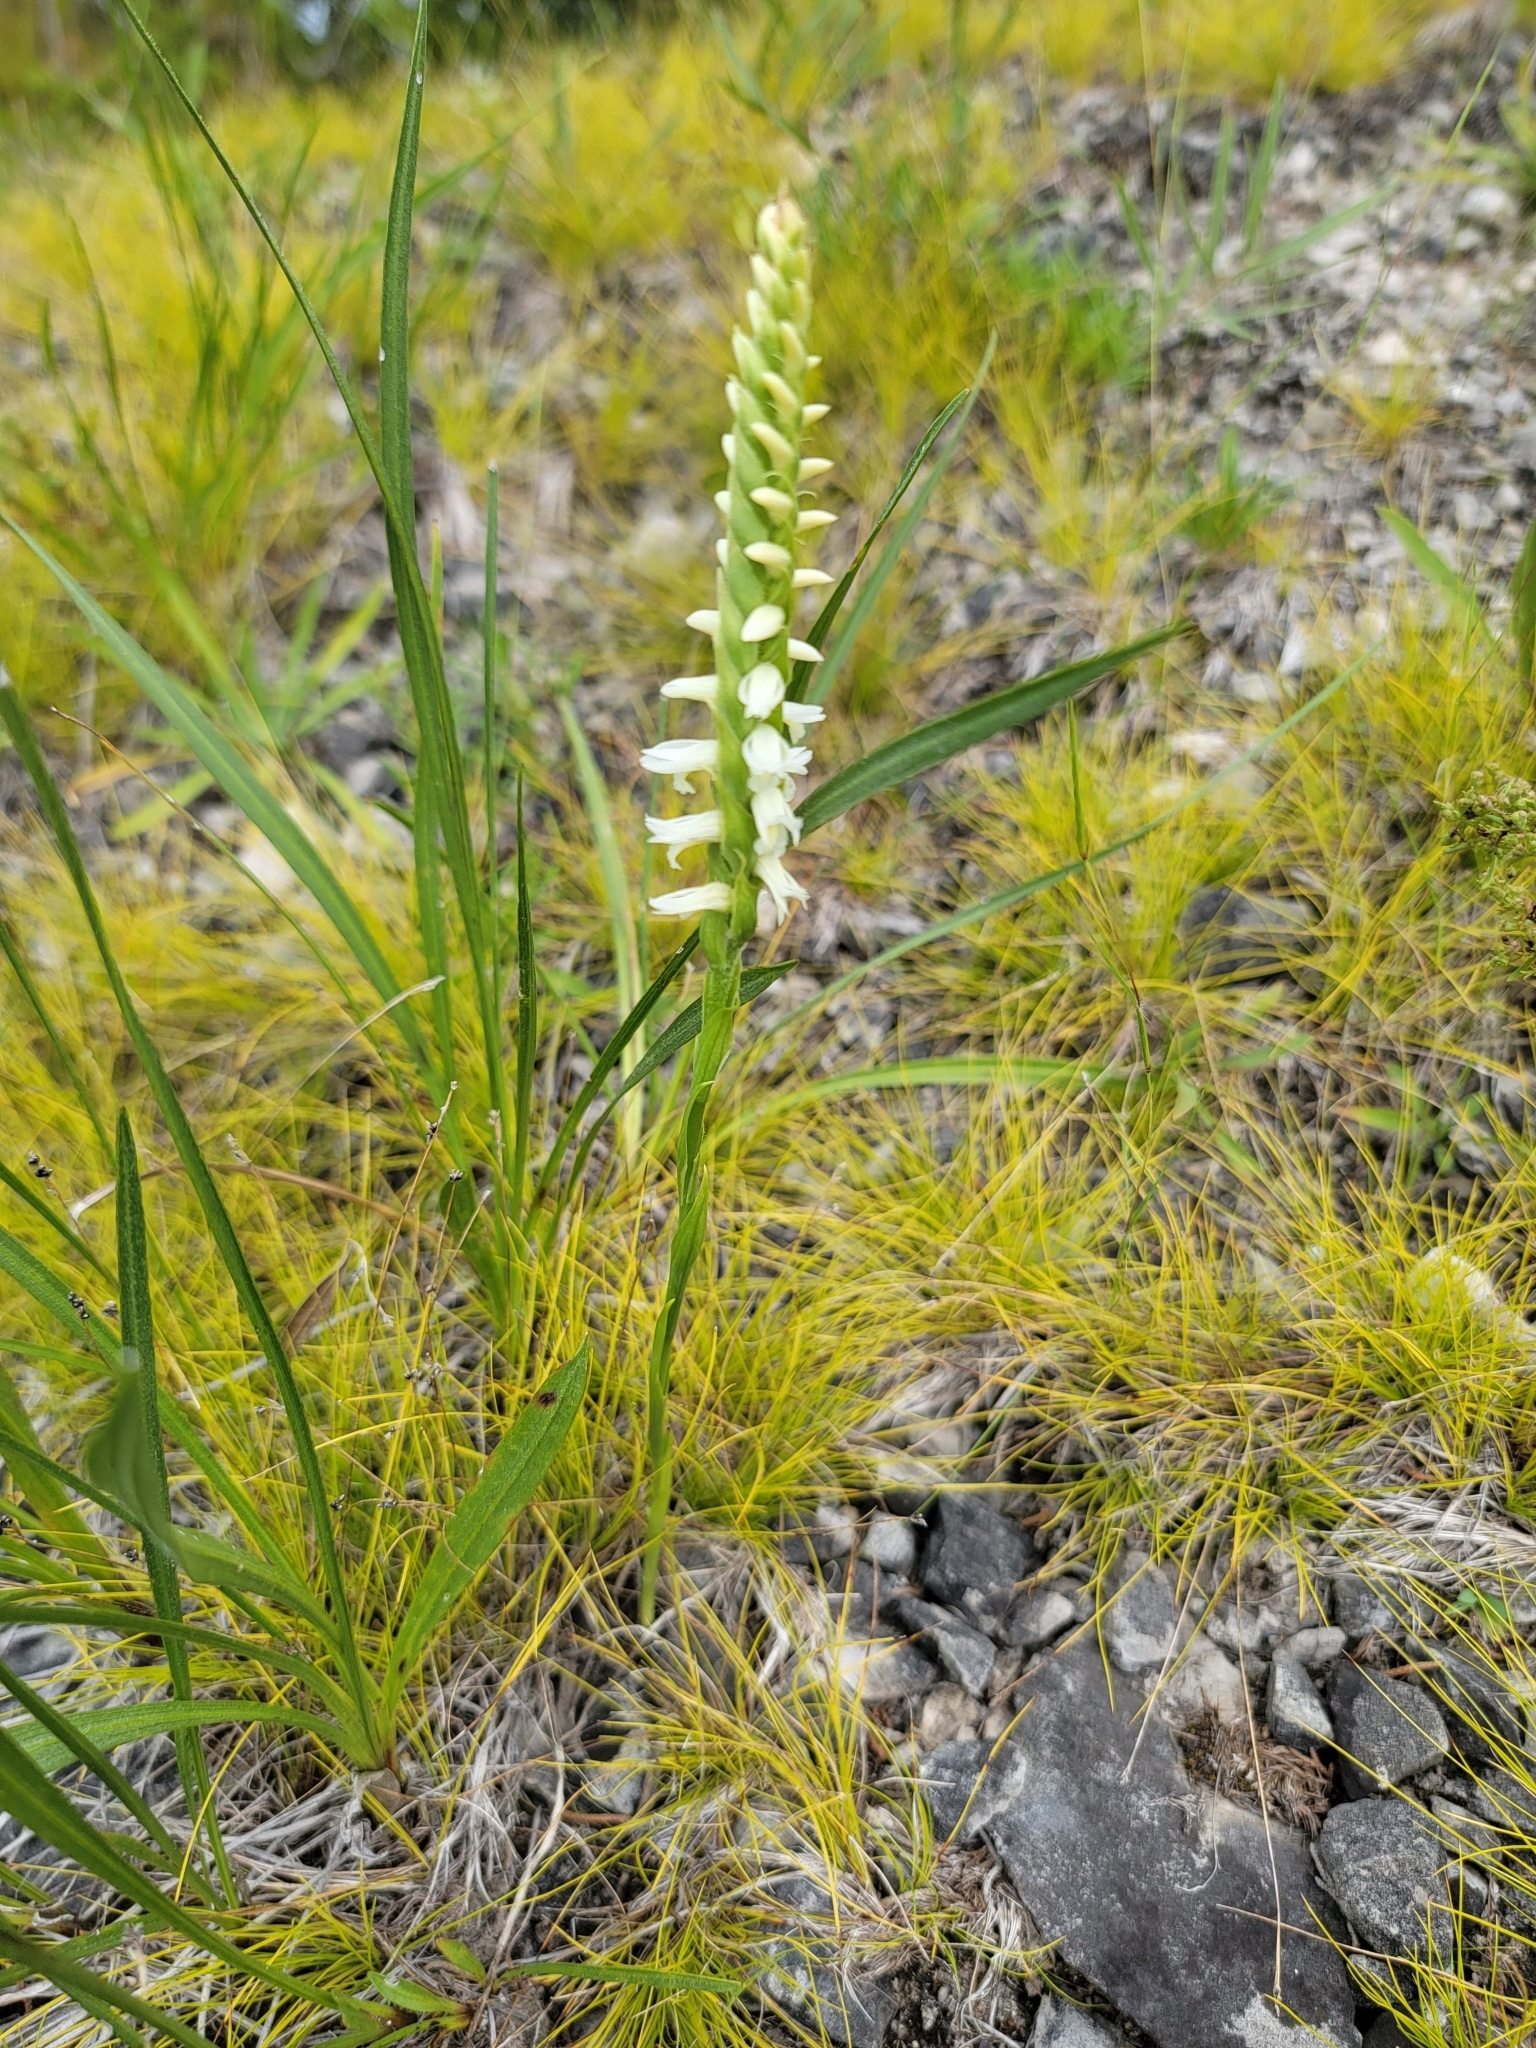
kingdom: Plantae
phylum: Tracheophyta
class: Liliopsida
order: Asparagales
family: Orchidaceae
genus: Spiranthes
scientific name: Spiranthes magnicamporum
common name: Great plains ladies'-tresses
